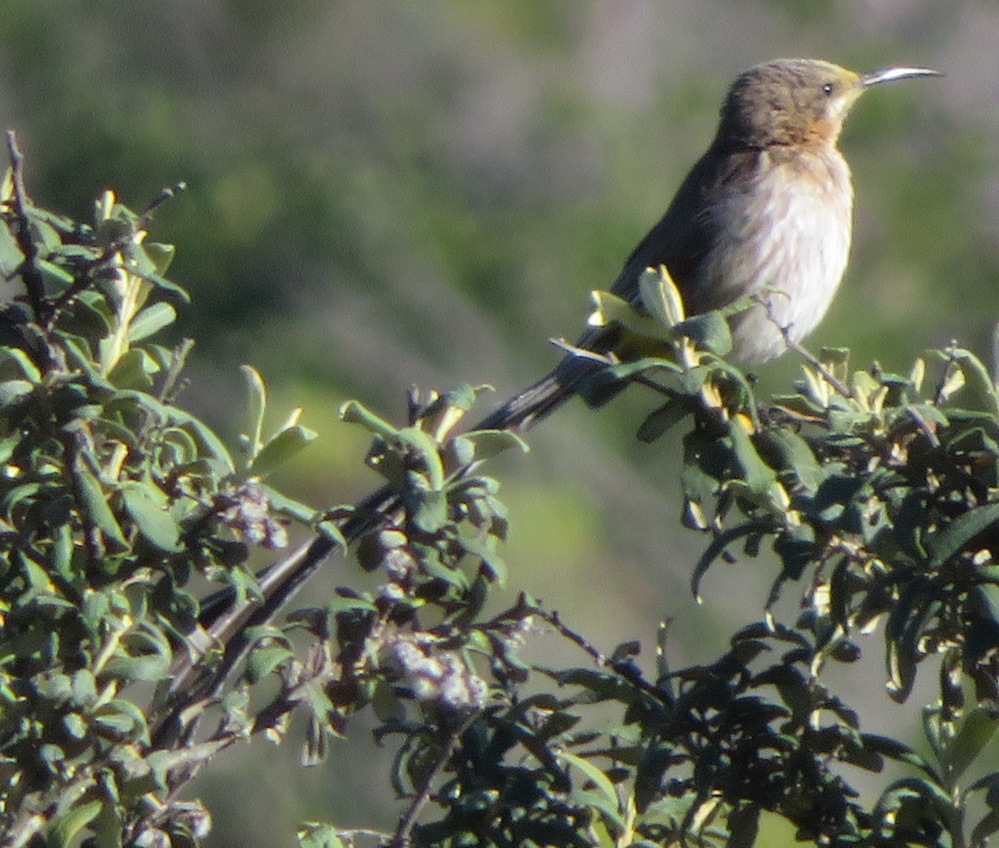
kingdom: Animalia
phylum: Chordata
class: Aves
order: Passeriformes
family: Promeropidae
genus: Promerops
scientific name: Promerops cafer
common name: Cape sugarbird
